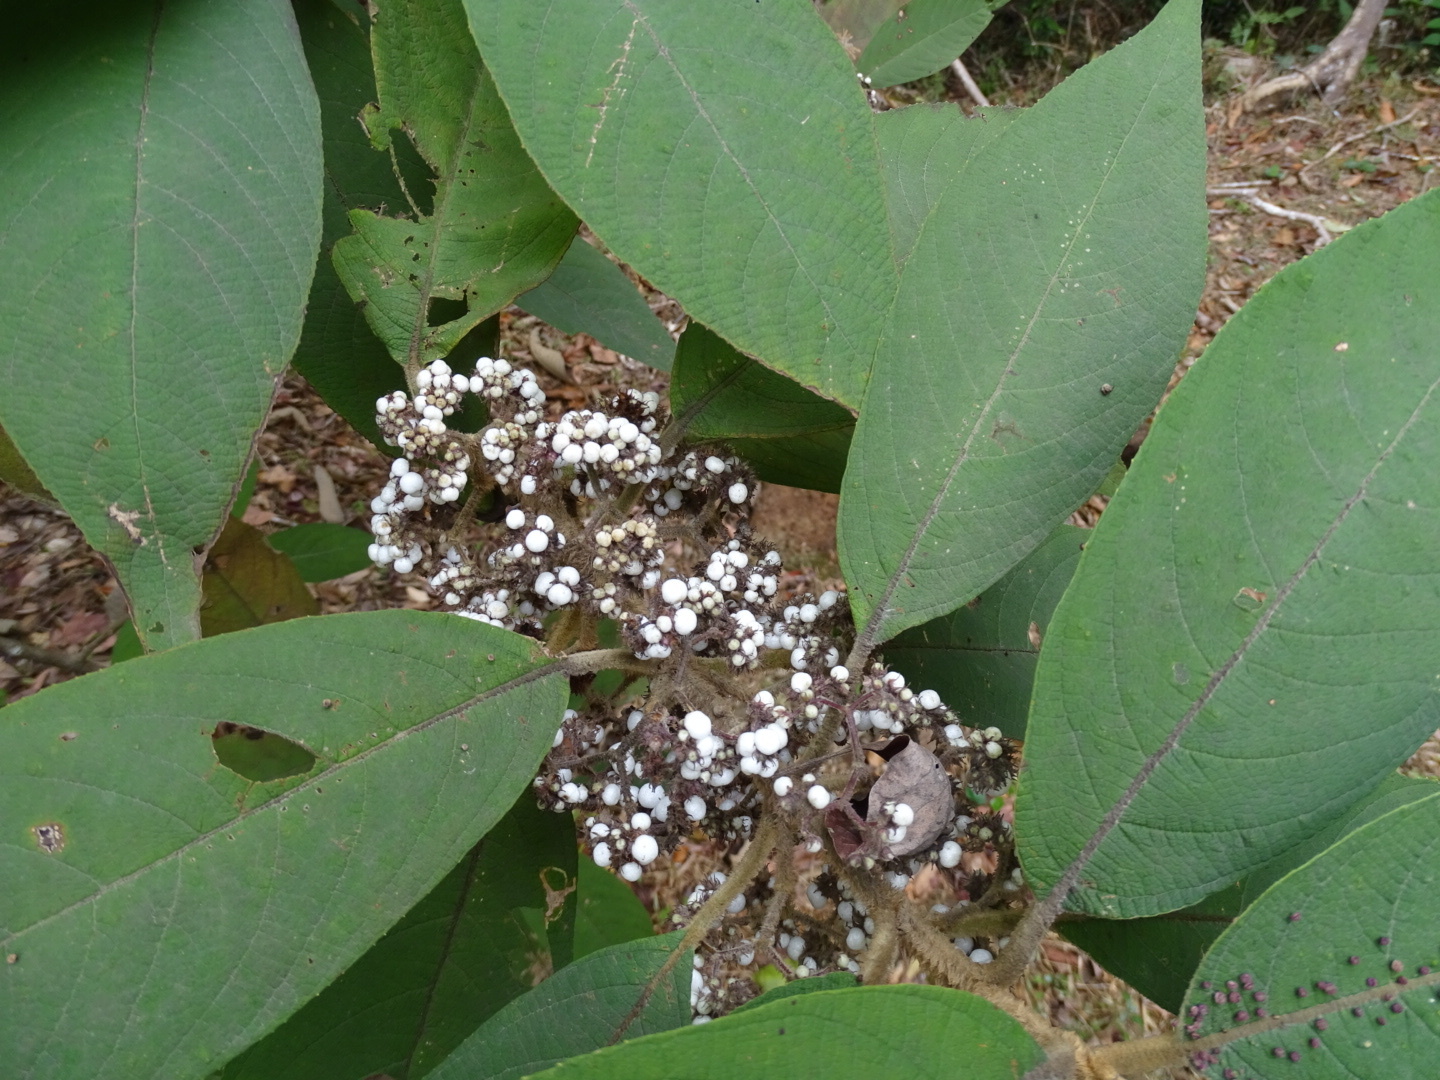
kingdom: Plantae
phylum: Tracheophyta
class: Magnoliopsida
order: Lamiales
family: Lamiaceae
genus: Callicarpa
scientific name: Callicarpa kochiana
